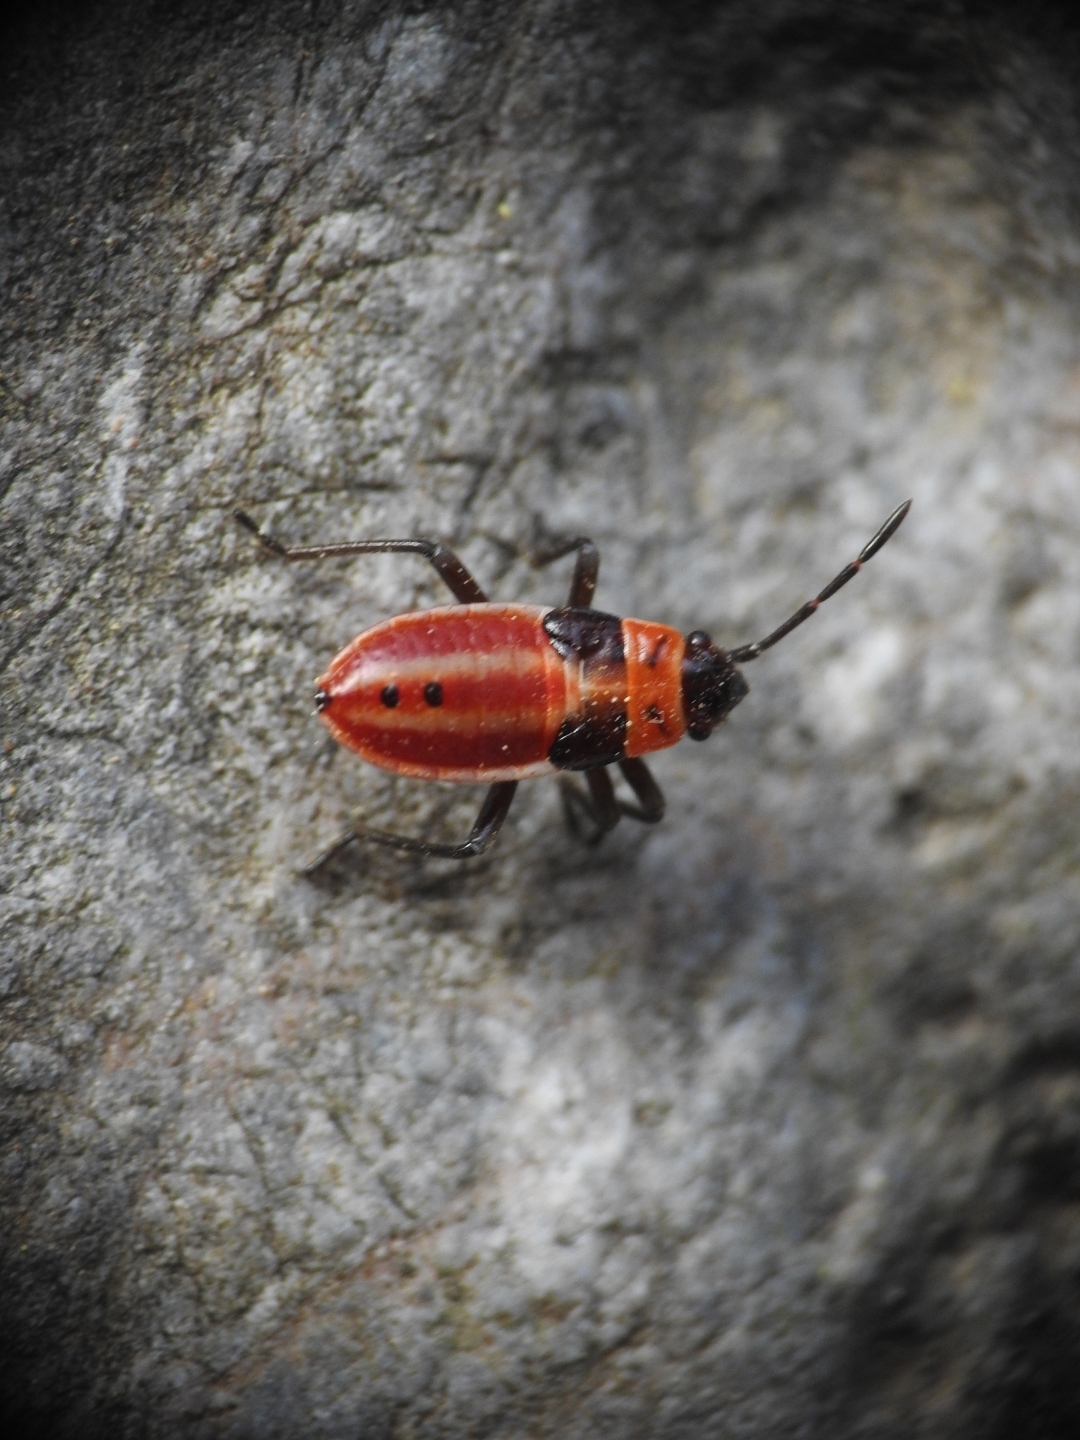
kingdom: Animalia
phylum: Arthropoda
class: Insecta
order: Hemiptera
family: Lygaeidae
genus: Lygaeus
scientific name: Lygaeus creticus
